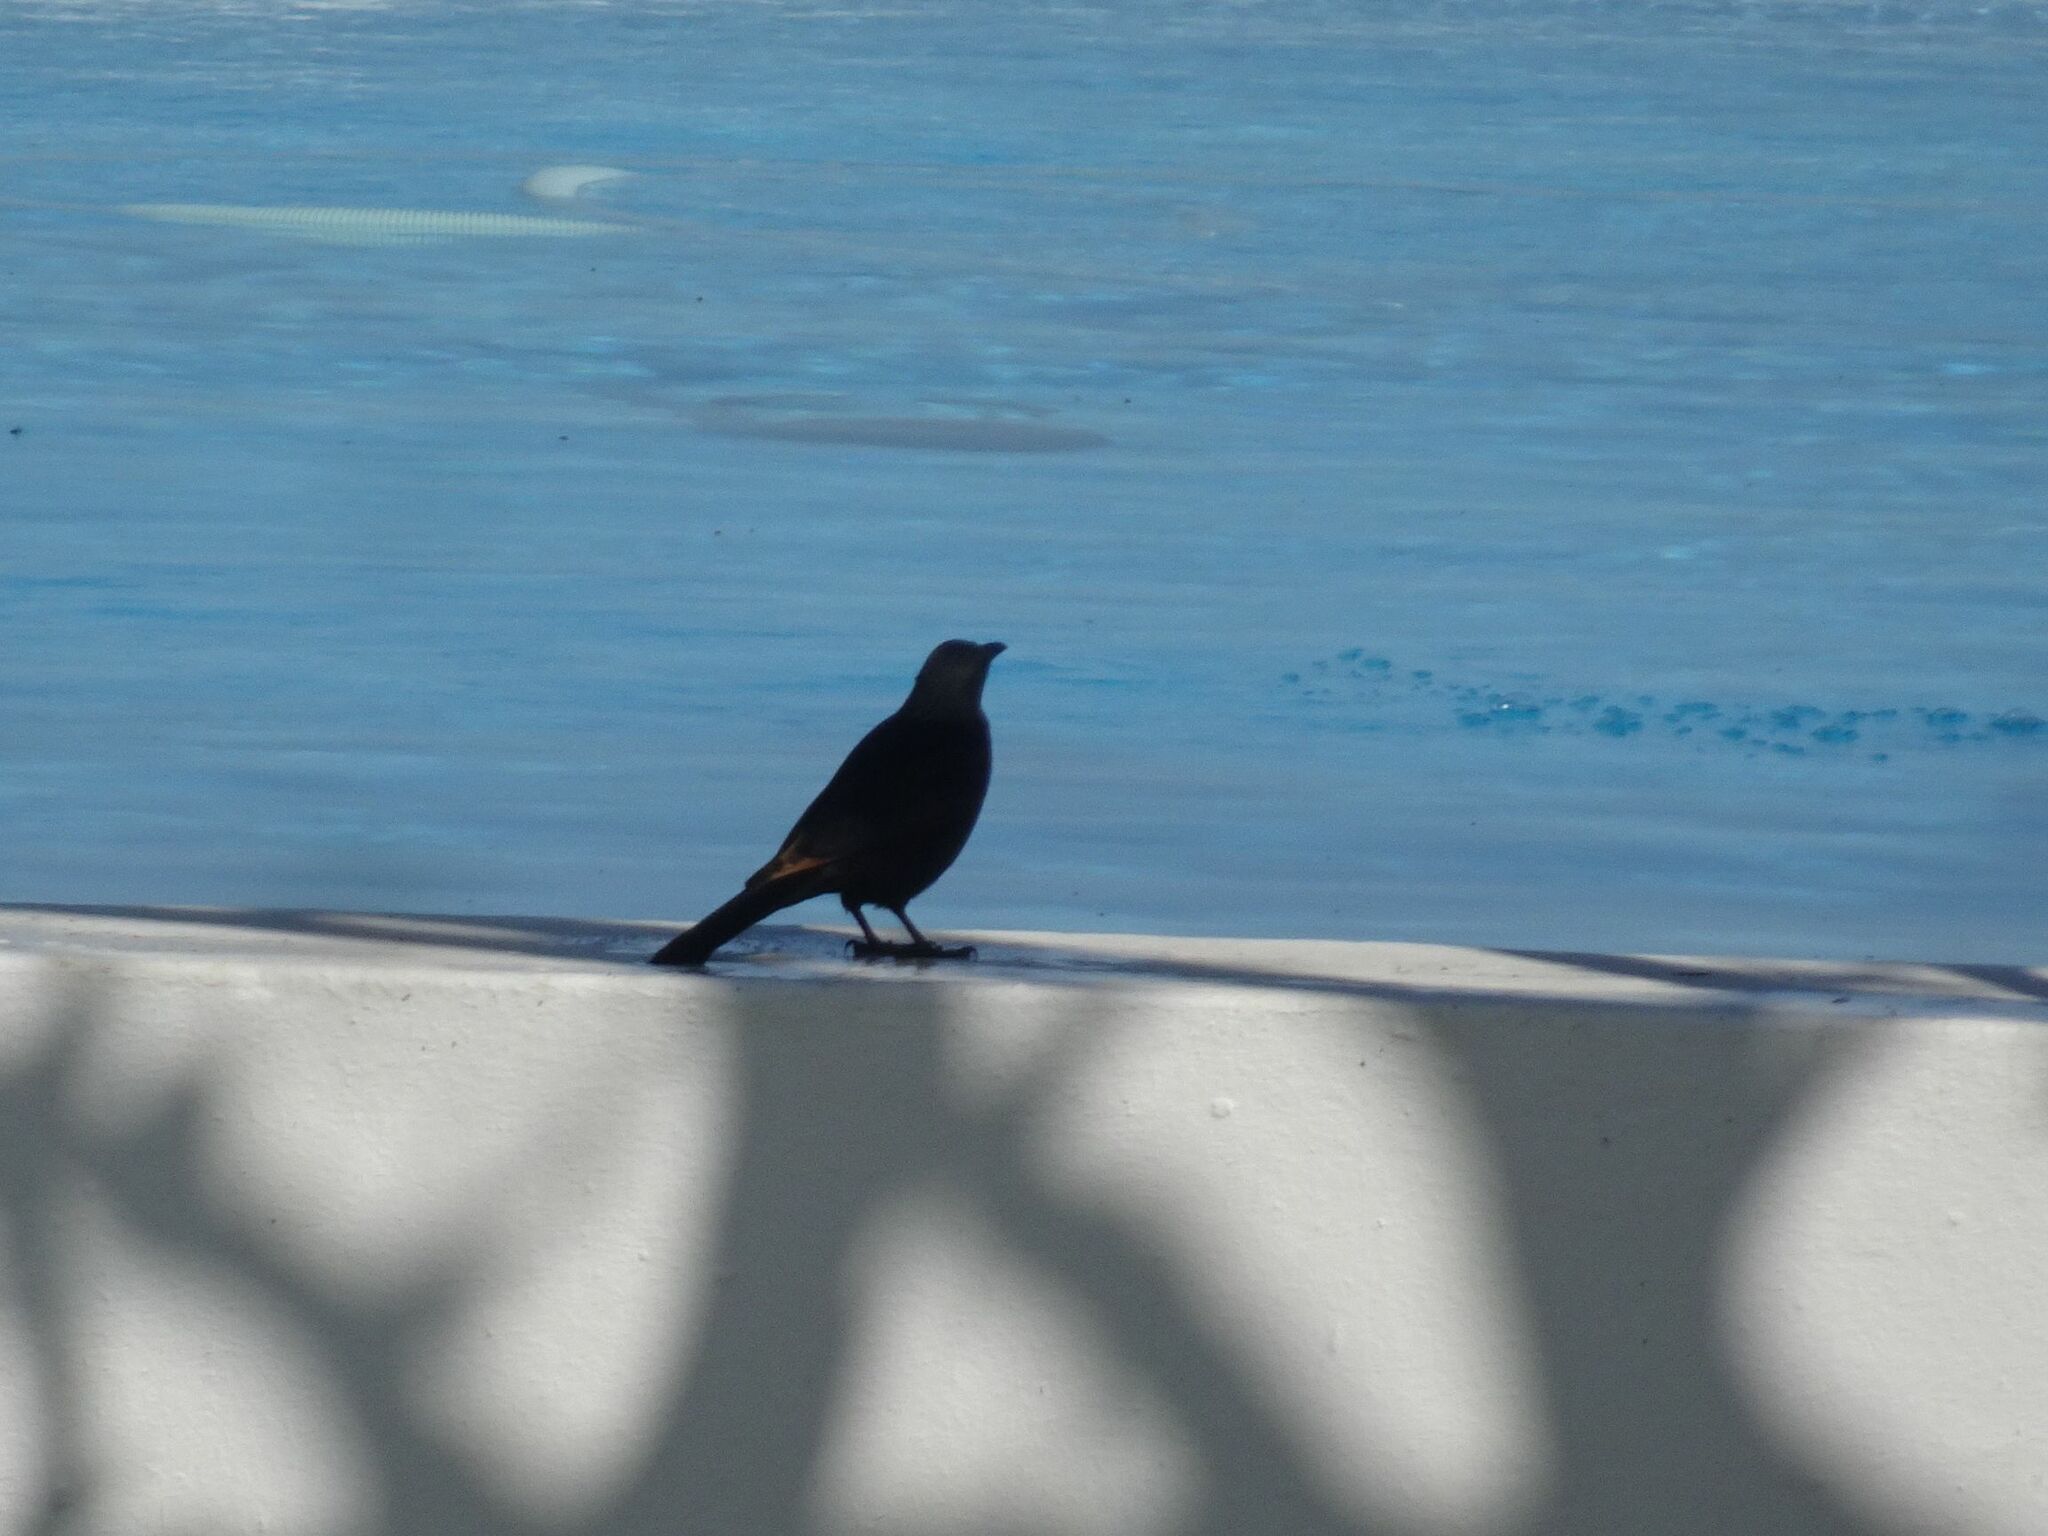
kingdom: Animalia
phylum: Chordata
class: Aves
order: Passeriformes
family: Sturnidae
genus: Onychognathus
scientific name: Onychognathus morio
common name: Red-winged starling
